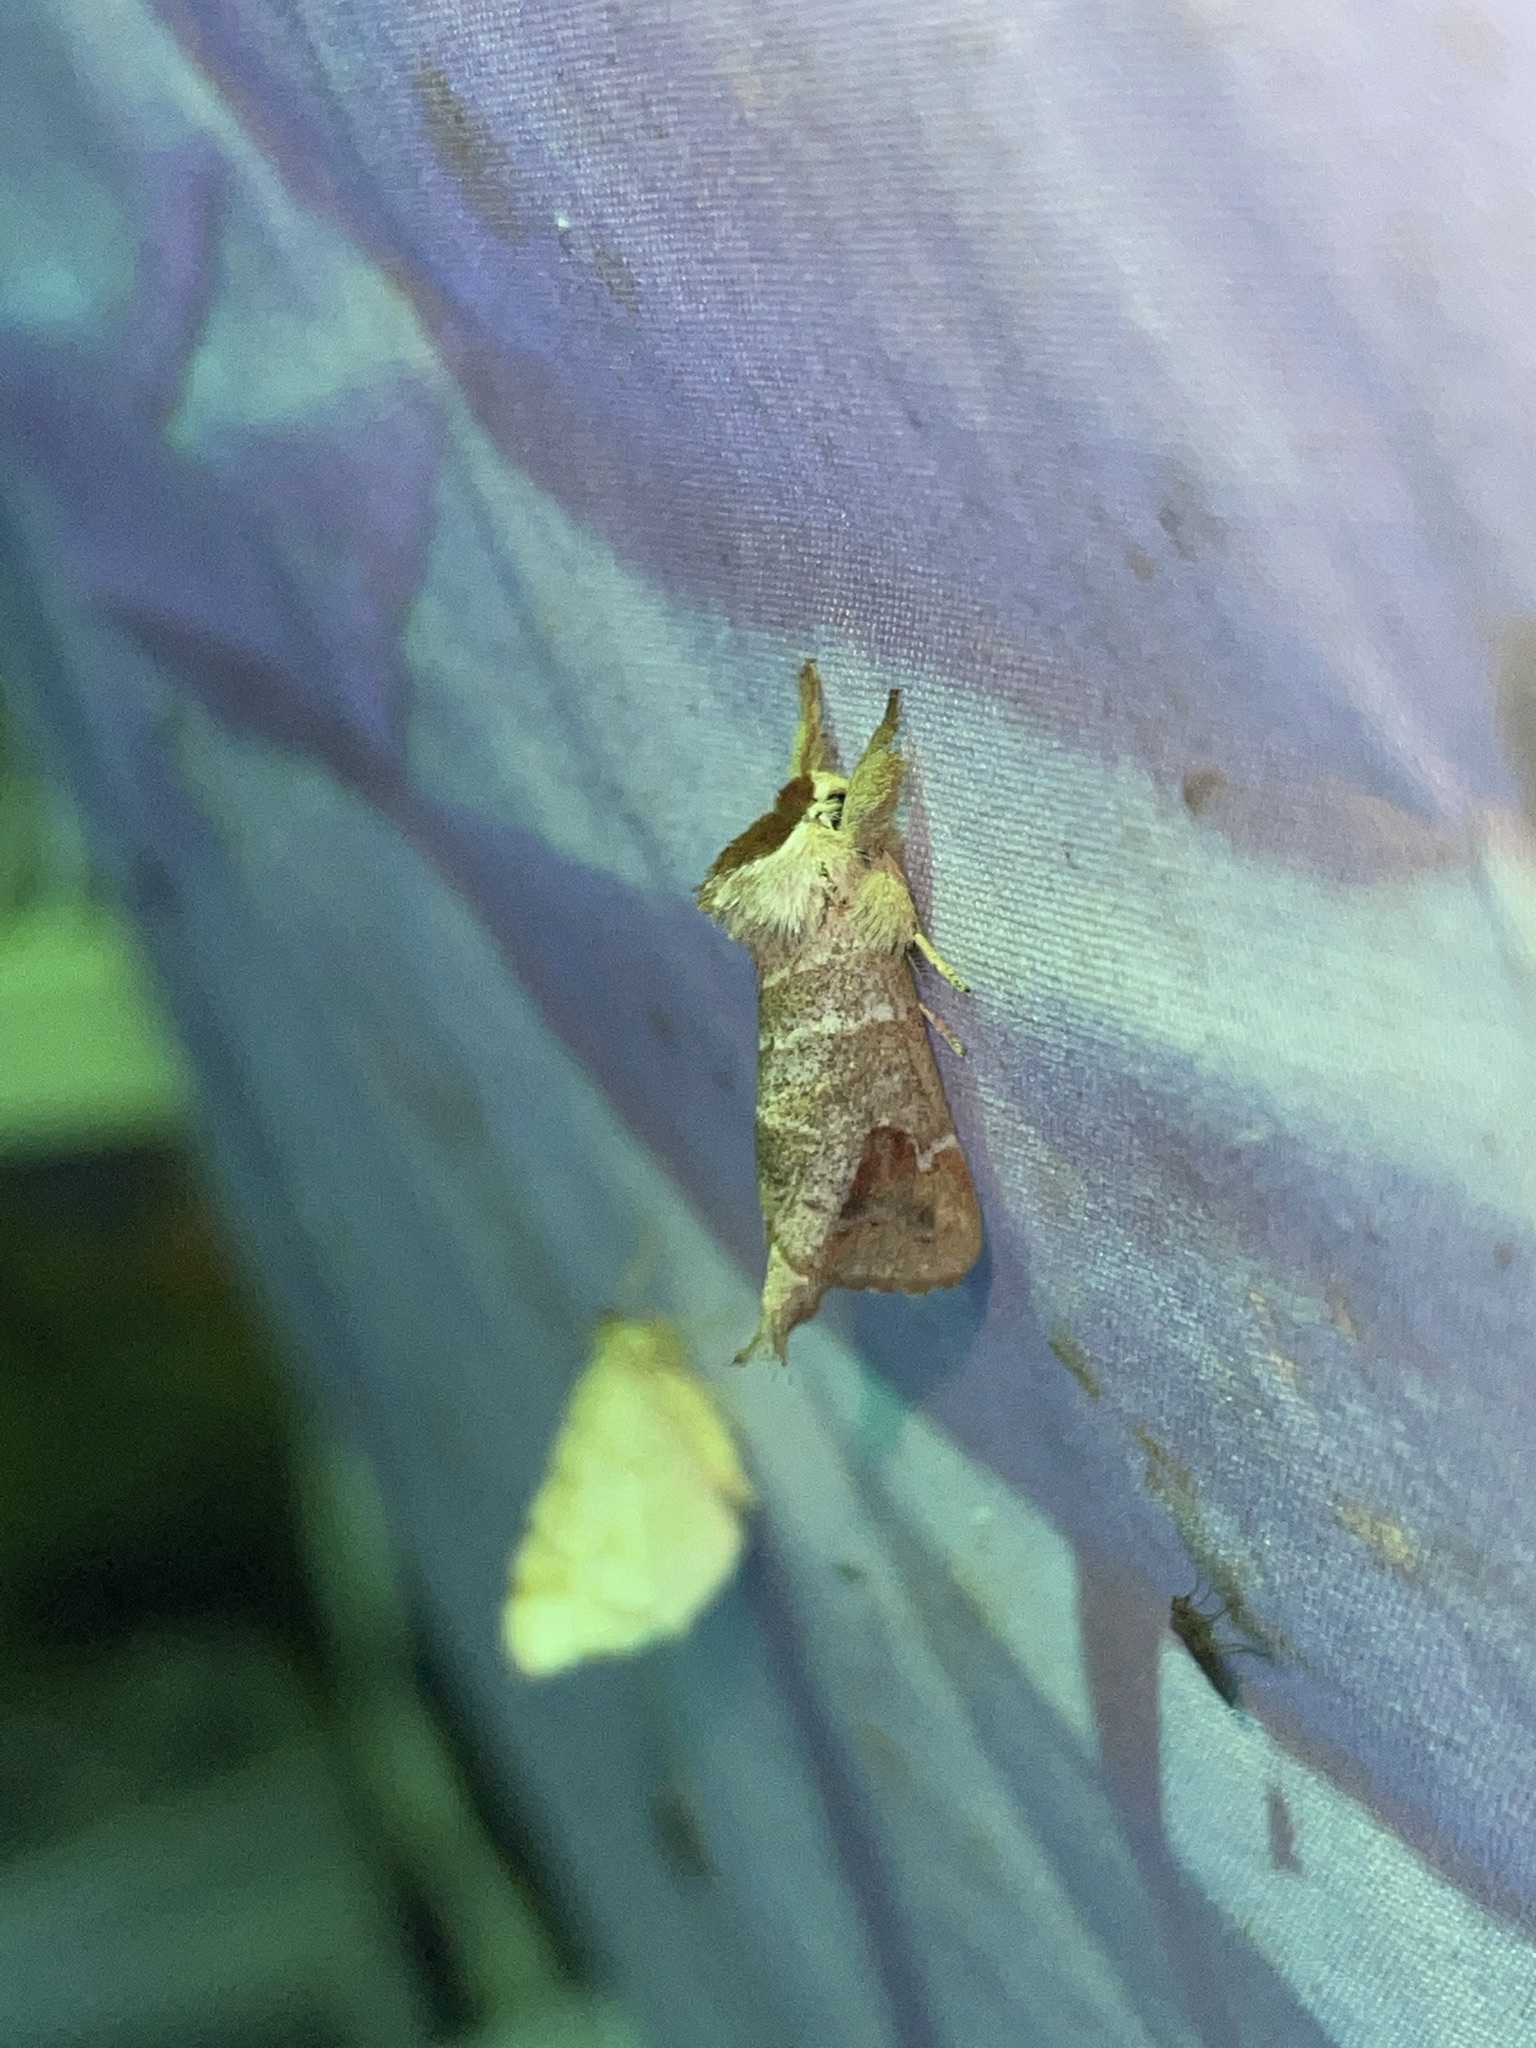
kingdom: Animalia
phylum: Arthropoda
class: Insecta
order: Lepidoptera
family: Notodontidae
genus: Clostera
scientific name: Clostera albosigma
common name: Sigmoid prominent
